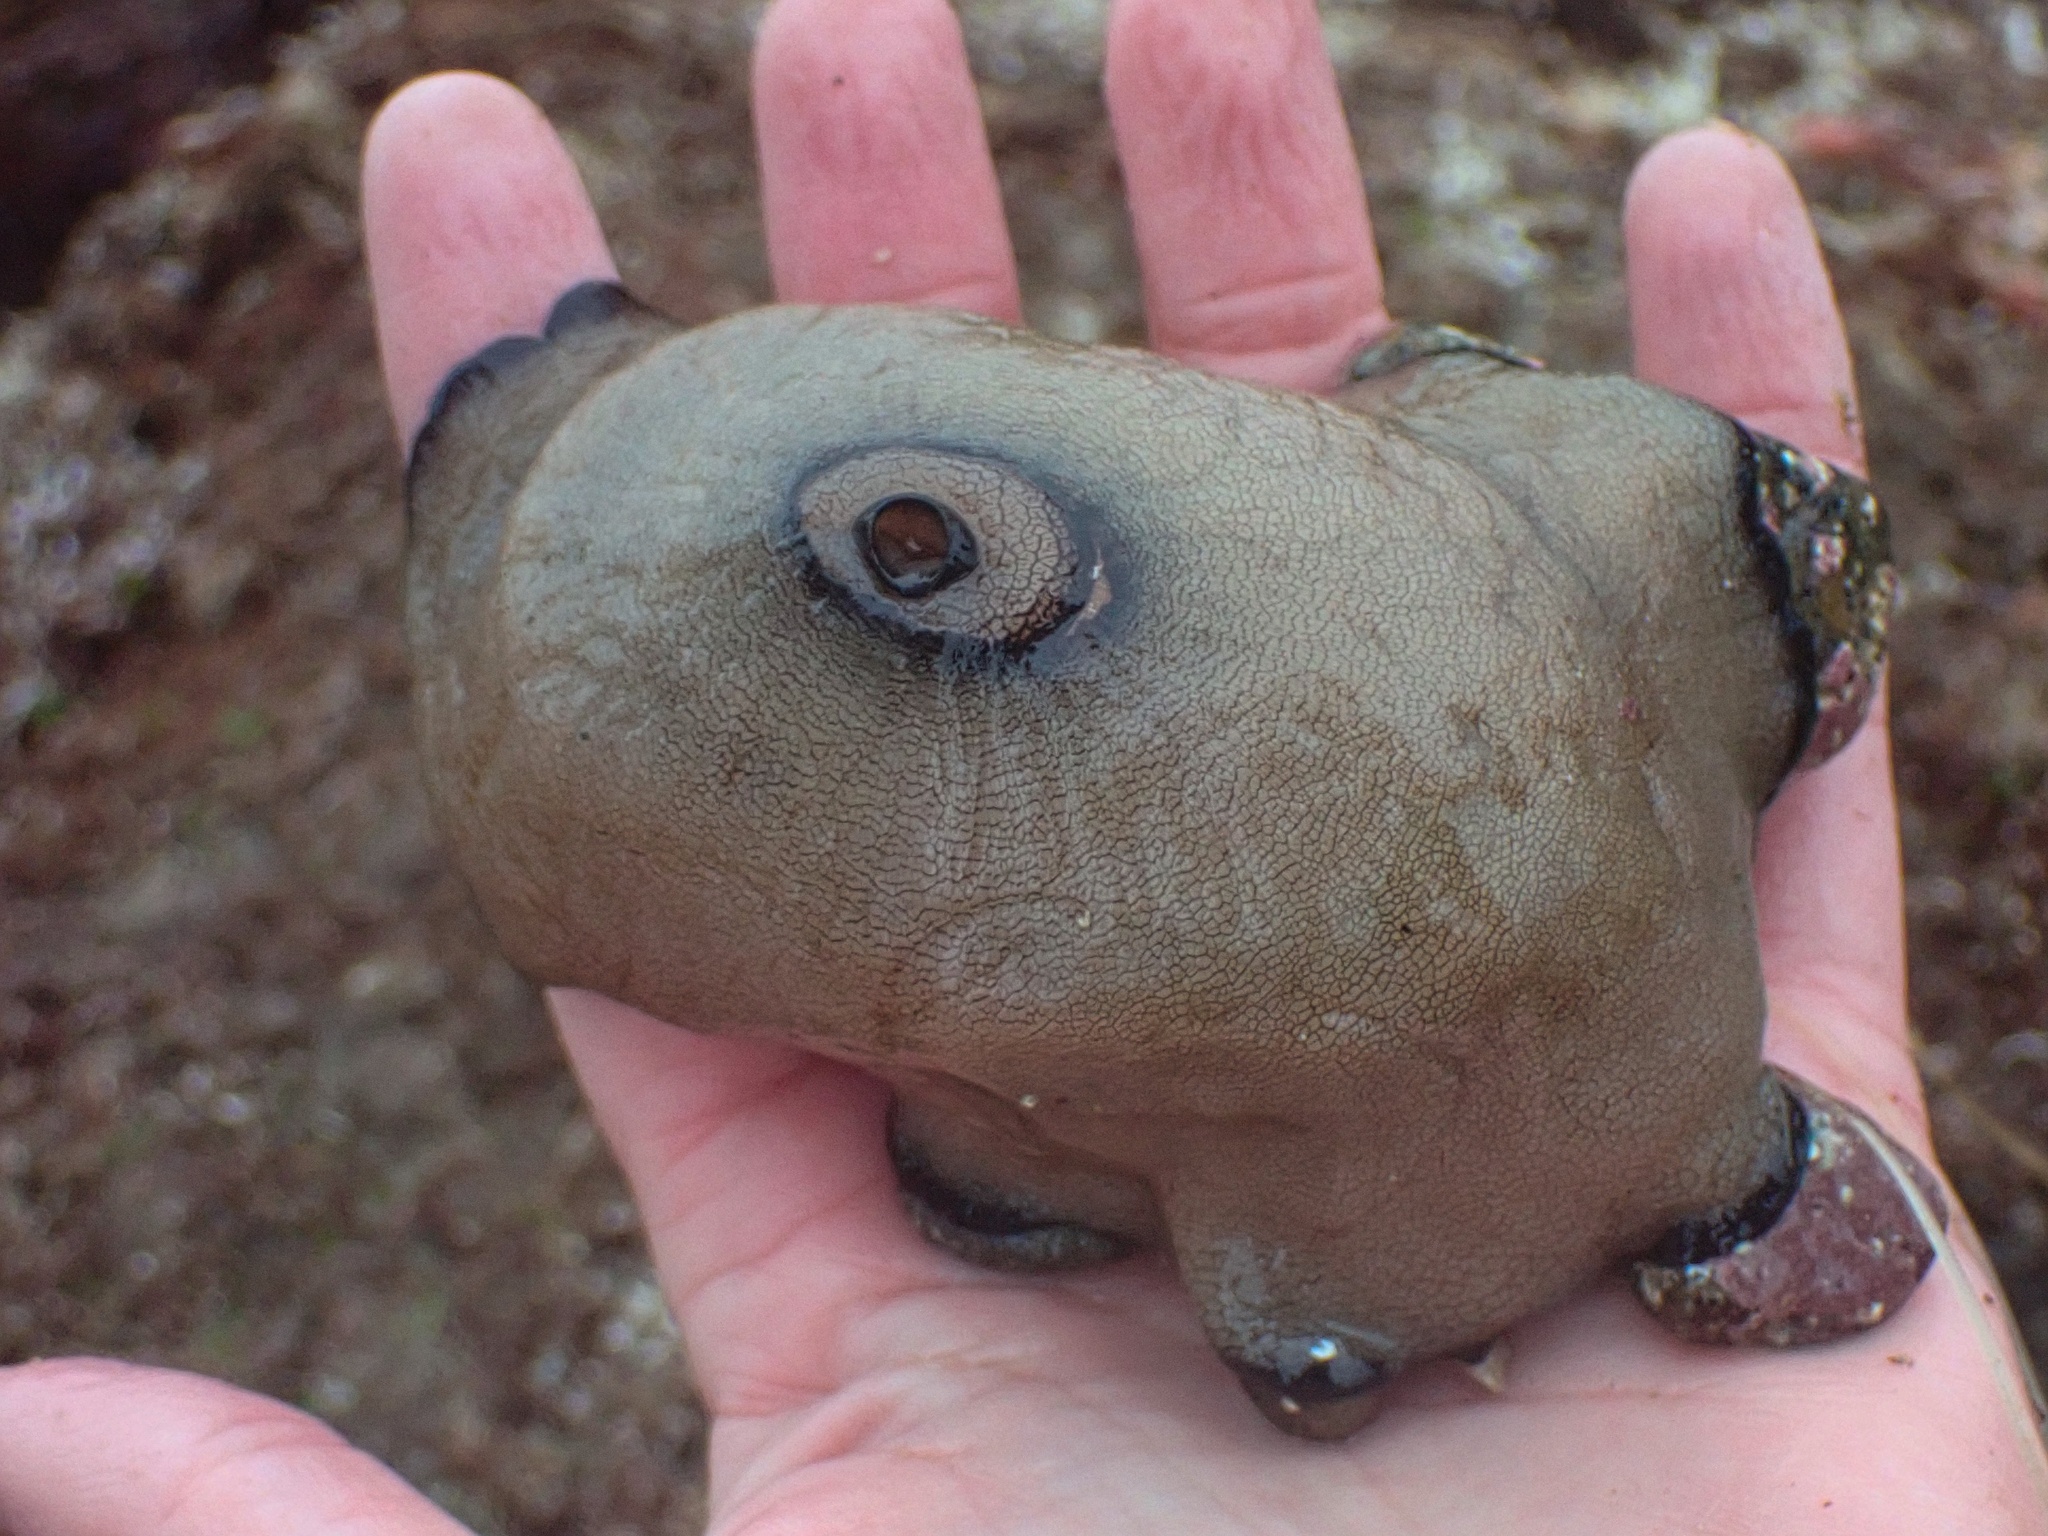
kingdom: Animalia
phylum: Mollusca
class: Gastropoda
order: Lepetellida
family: Fissurellidae
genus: Megathura
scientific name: Megathura crenulata
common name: Giant keyhole limpet
